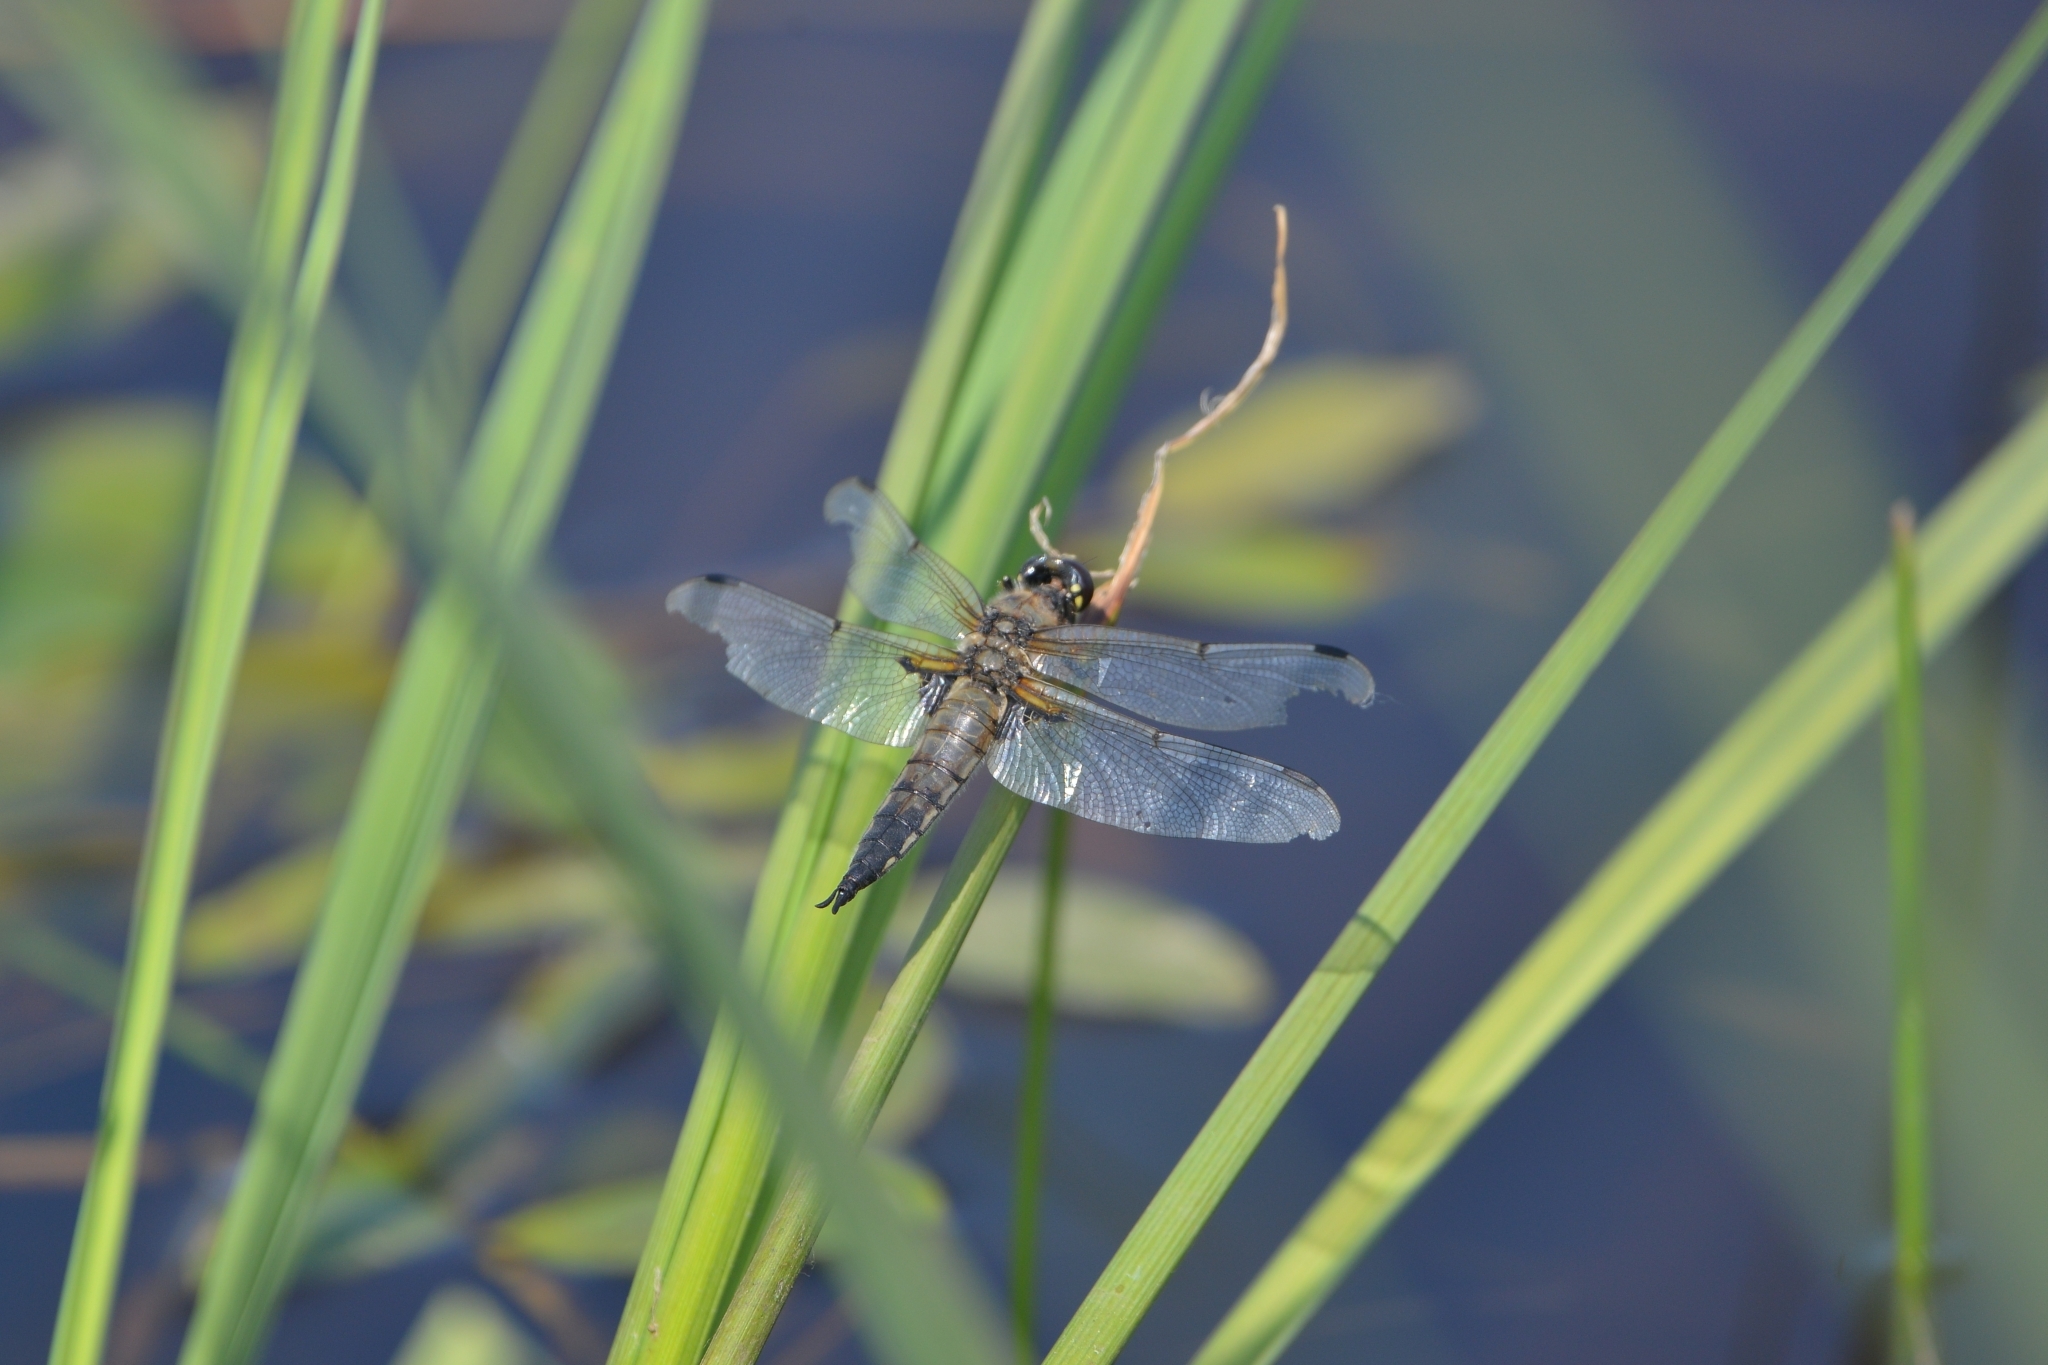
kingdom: Animalia
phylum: Arthropoda
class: Insecta
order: Odonata
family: Libellulidae
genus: Libellula
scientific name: Libellula quadrimaculata
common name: Four-spotted chaser
